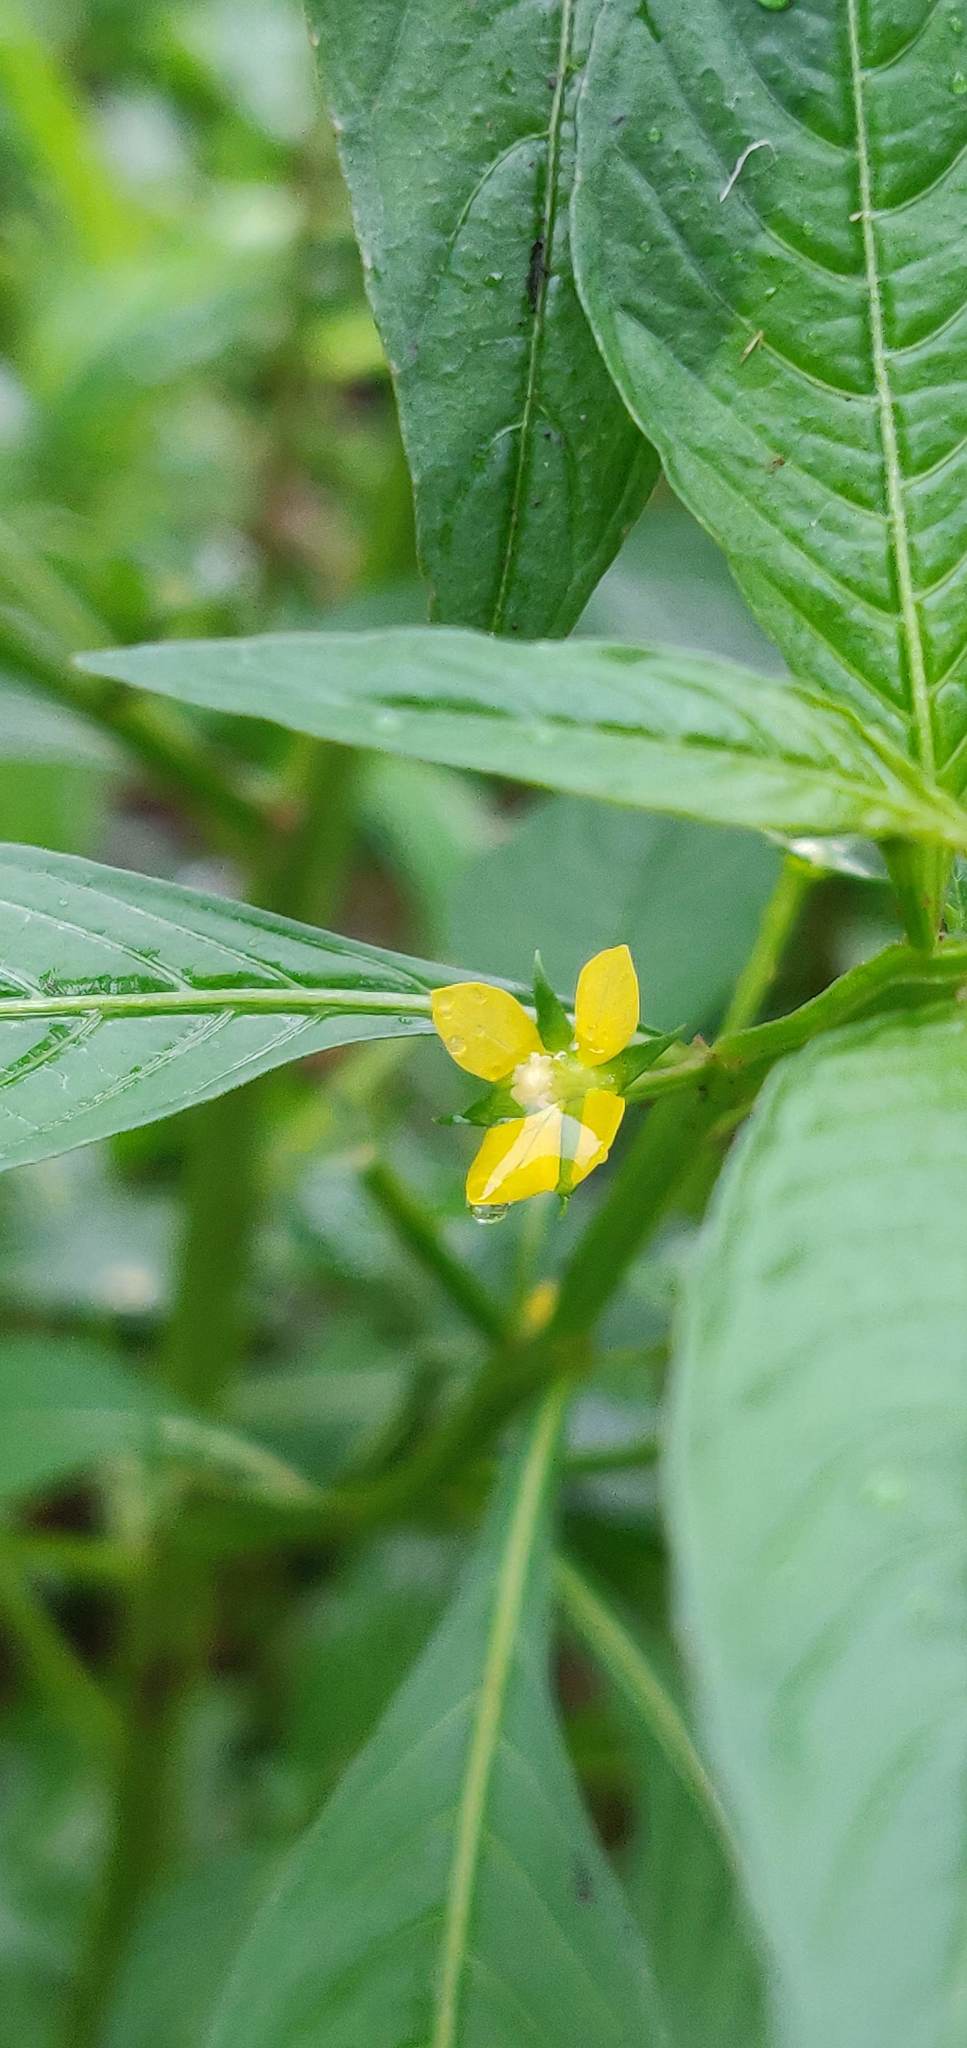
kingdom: Plantae
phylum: Tracheophyta
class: Magnoliopsida
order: Myrtales
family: Onagraceae
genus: Ludwigia
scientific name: Ludwigia perennis
